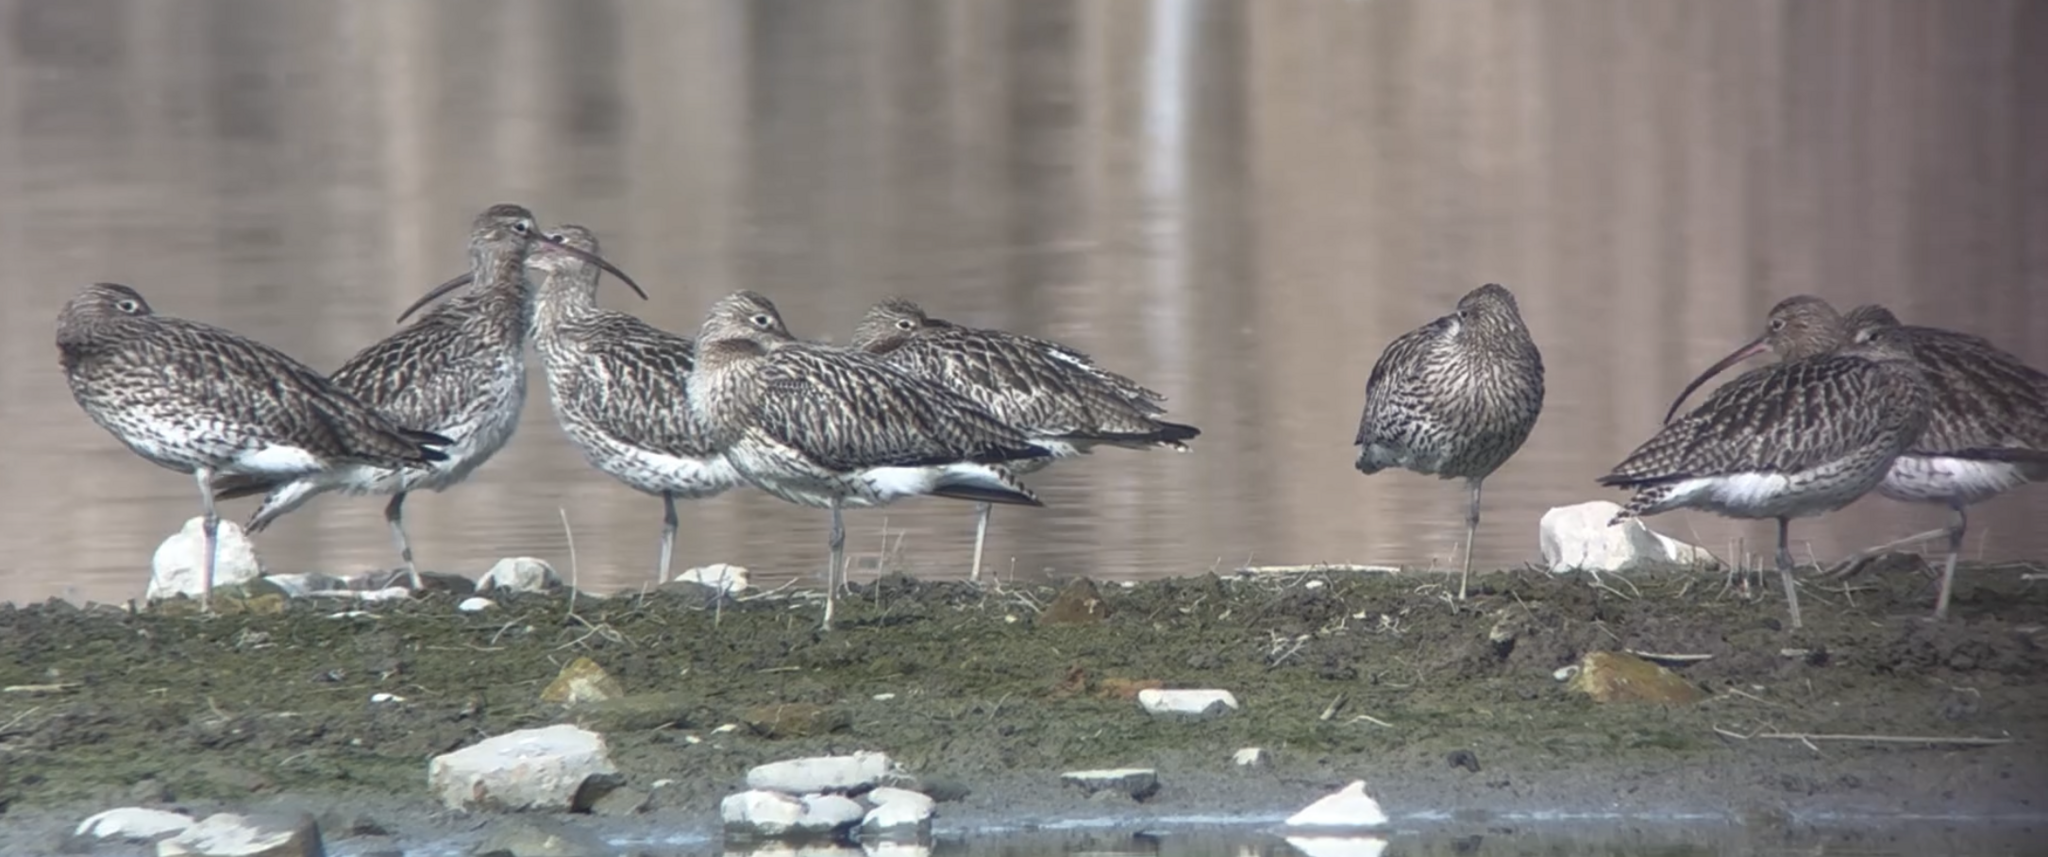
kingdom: Animalia
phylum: Chordata
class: Aves
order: Charadriiformes
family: Scolopacidae
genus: Numenius
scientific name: Numenius arquata
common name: Eurasian curlew
